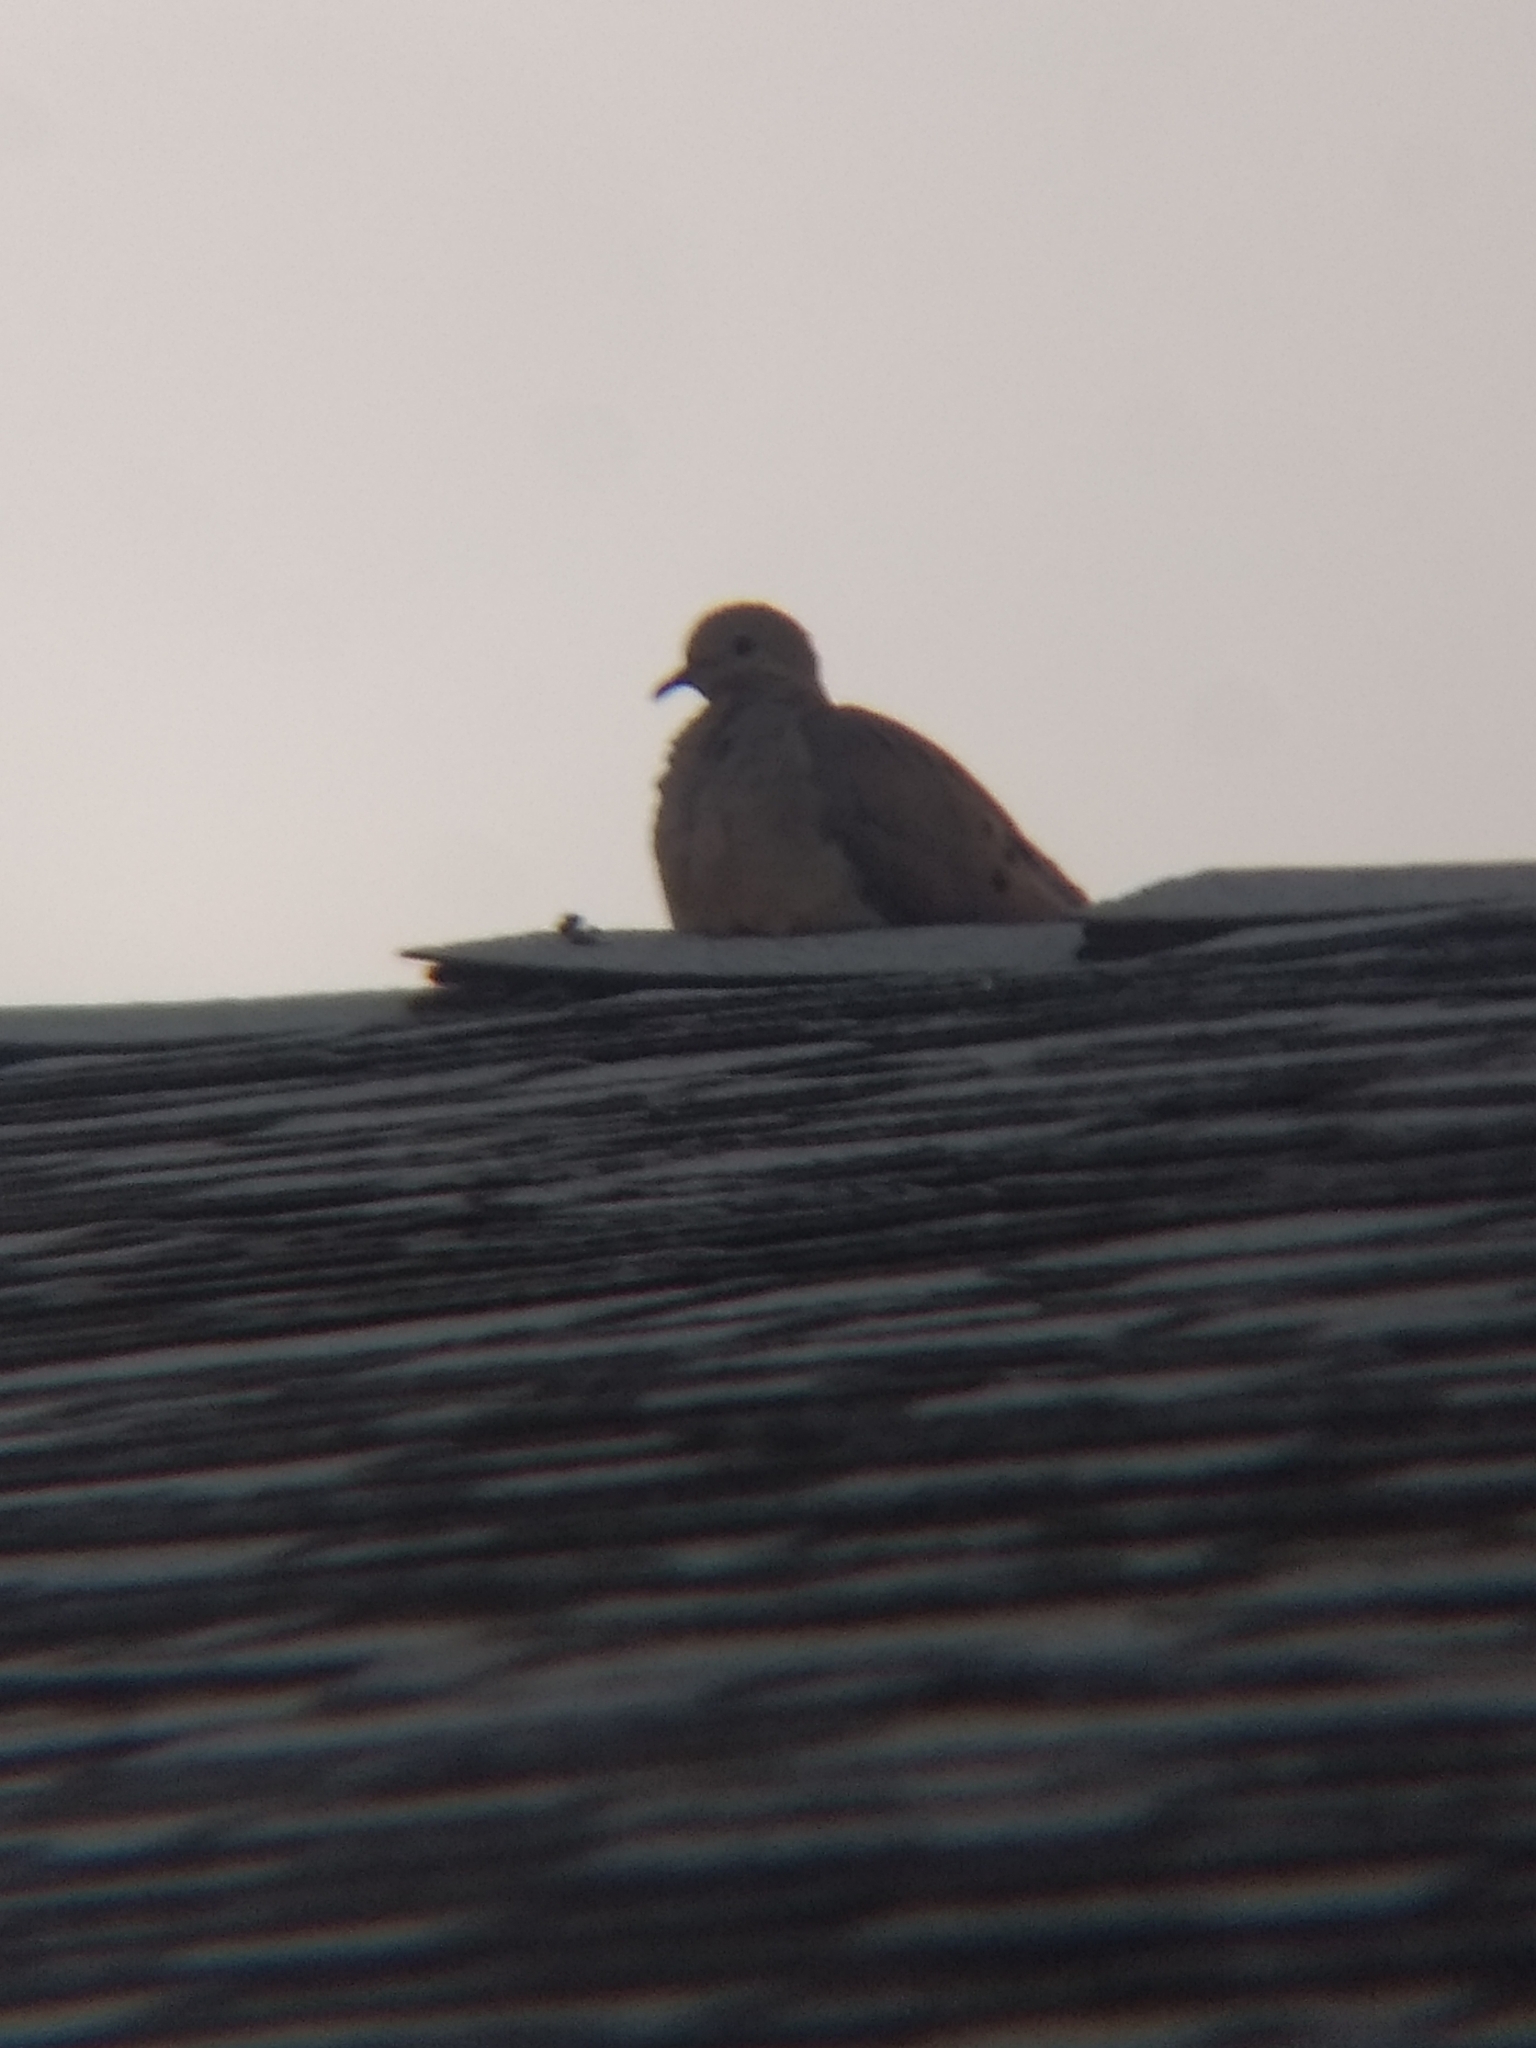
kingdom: Animalia
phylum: Chordata
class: Aves
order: Columbiformes
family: Columbidae
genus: Zenaida
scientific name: Zenaida macroura
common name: Mourning dove
